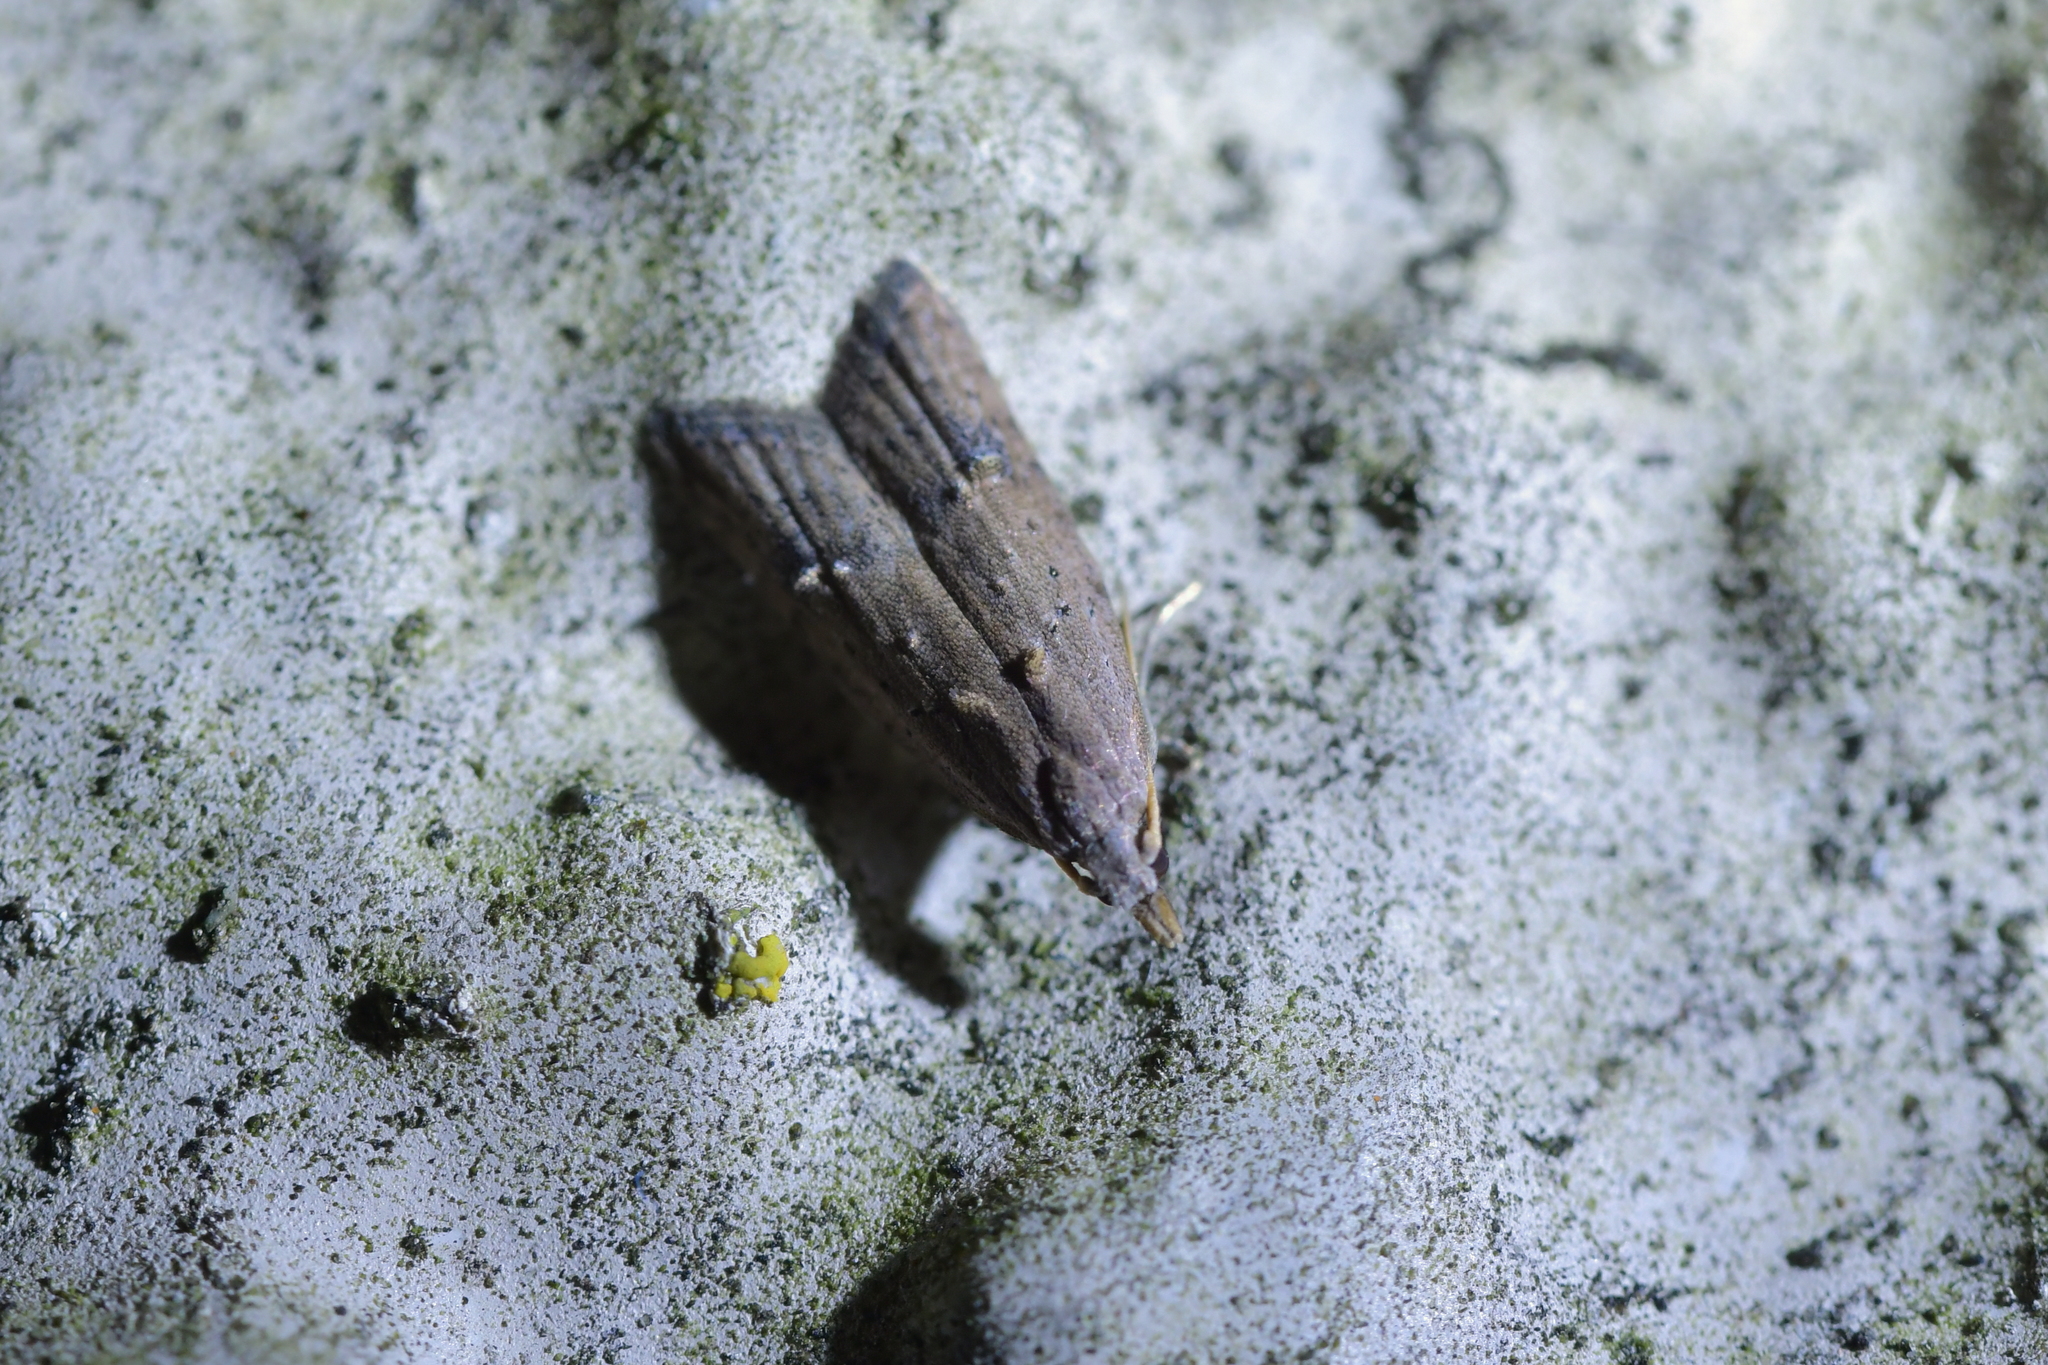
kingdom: Animalia
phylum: Arthropoda
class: Insecta
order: Lepidoptera
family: Carposinidae
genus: Carposina
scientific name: Carposina rubophaga
